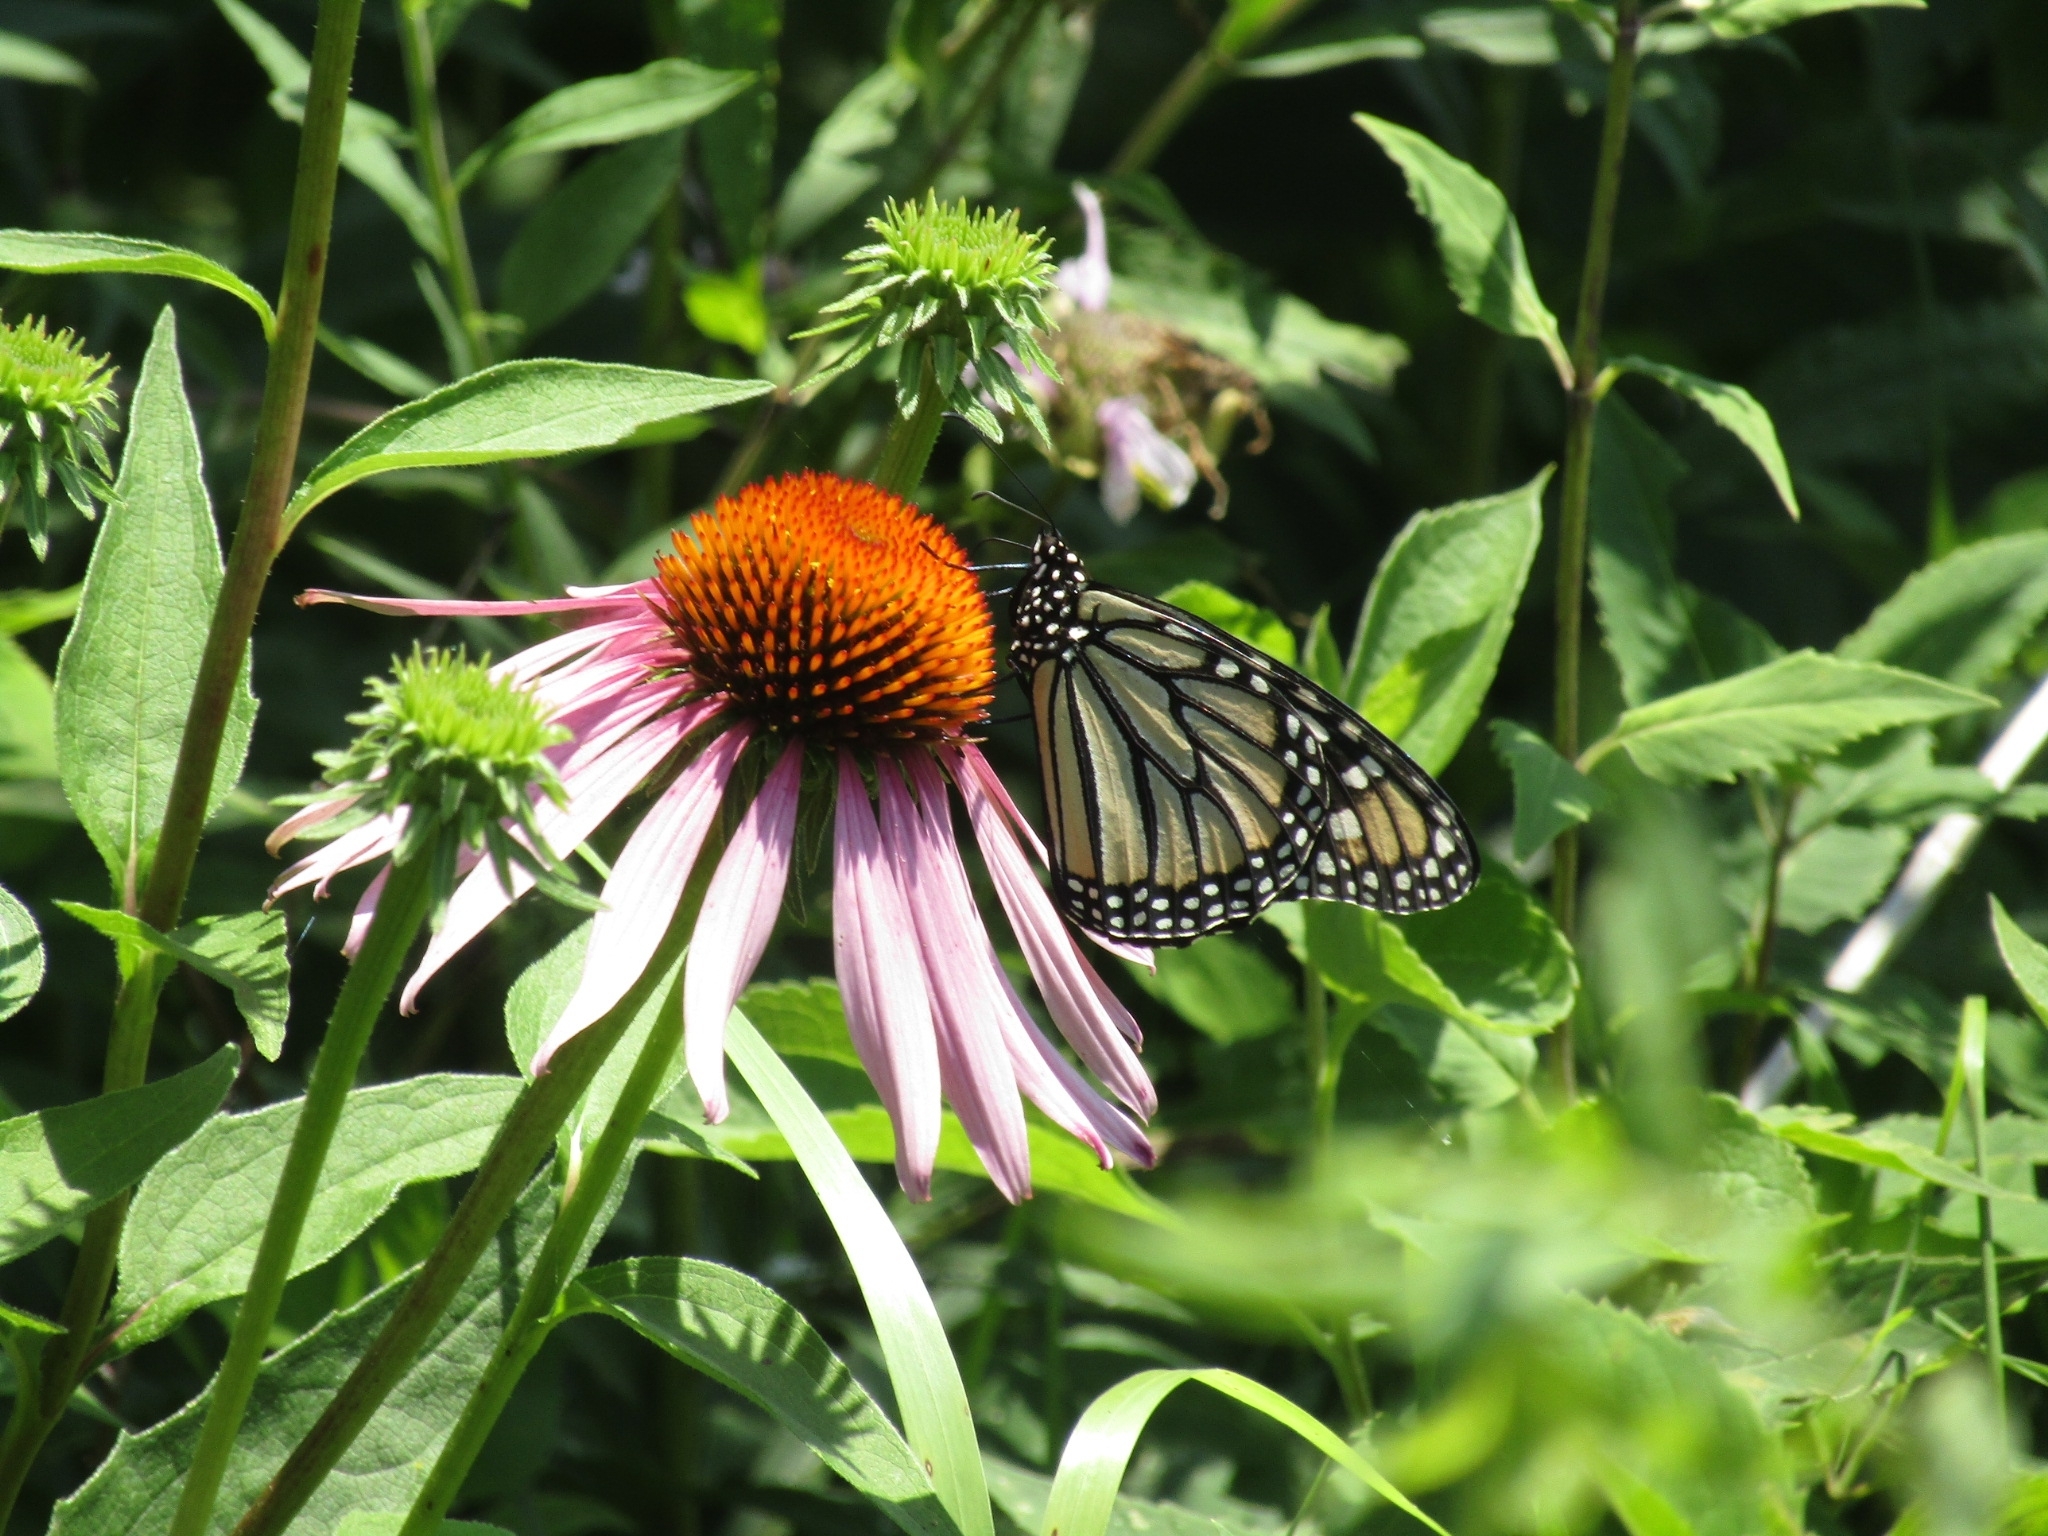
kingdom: Animalia
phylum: Arthropoda
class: Insecta
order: Lepidoptera
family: Nymphalidae
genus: Danaus
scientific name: Danaus plexippus
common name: Monarch
